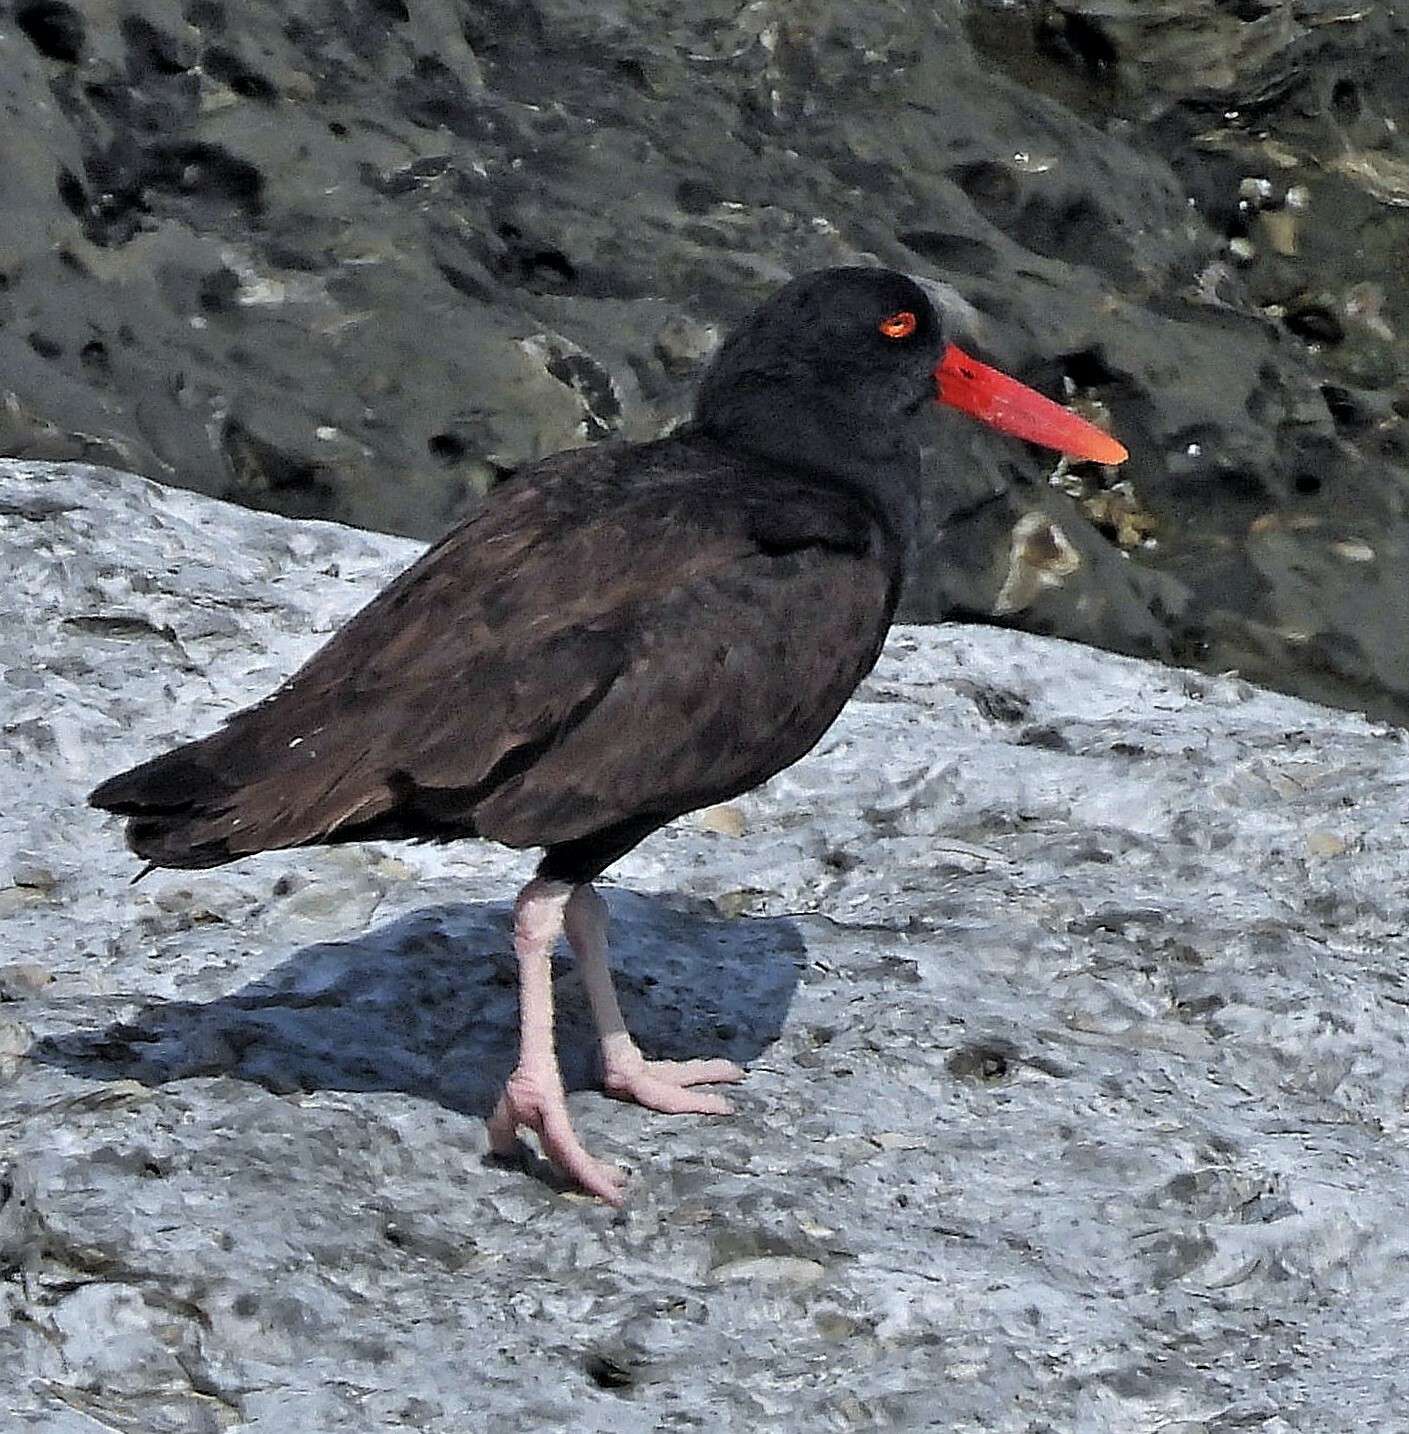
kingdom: Animalia
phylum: Chordata
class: Aves
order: Charadriiformes
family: Haematopodidae
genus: Haematopus
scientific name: Haematopus ater
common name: Blackish oystercatcher
